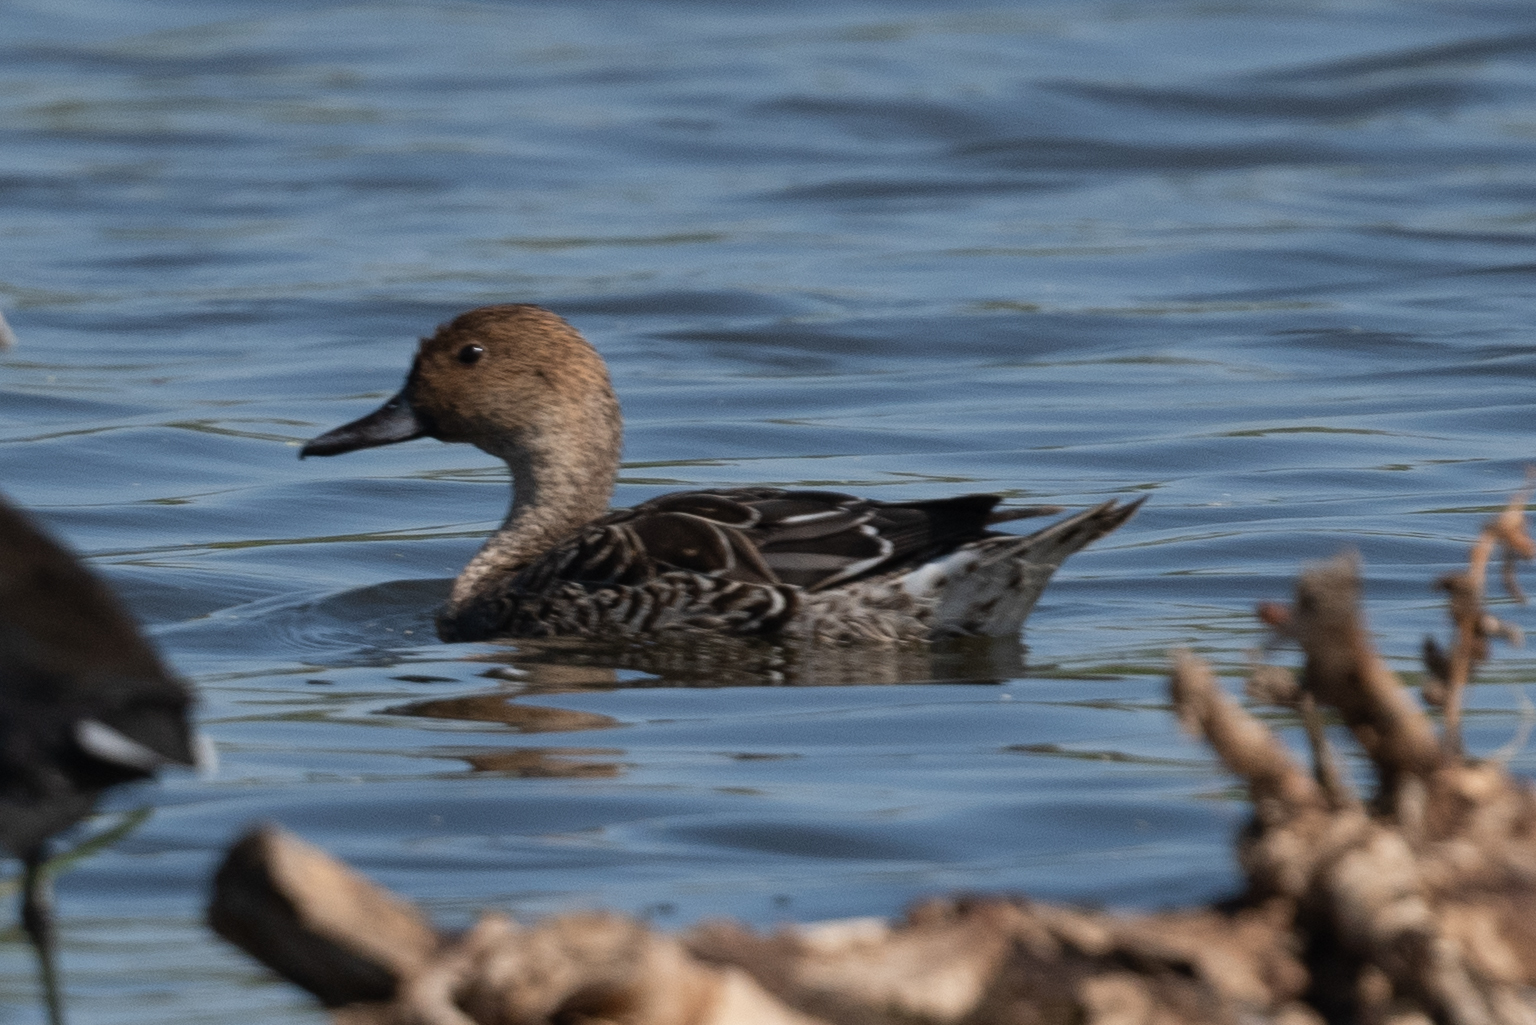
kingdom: Animalia
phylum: Chordata
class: Aves
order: Anseriformes
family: Anatidae
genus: Anas
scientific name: Anas acuta
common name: Northern pintail
